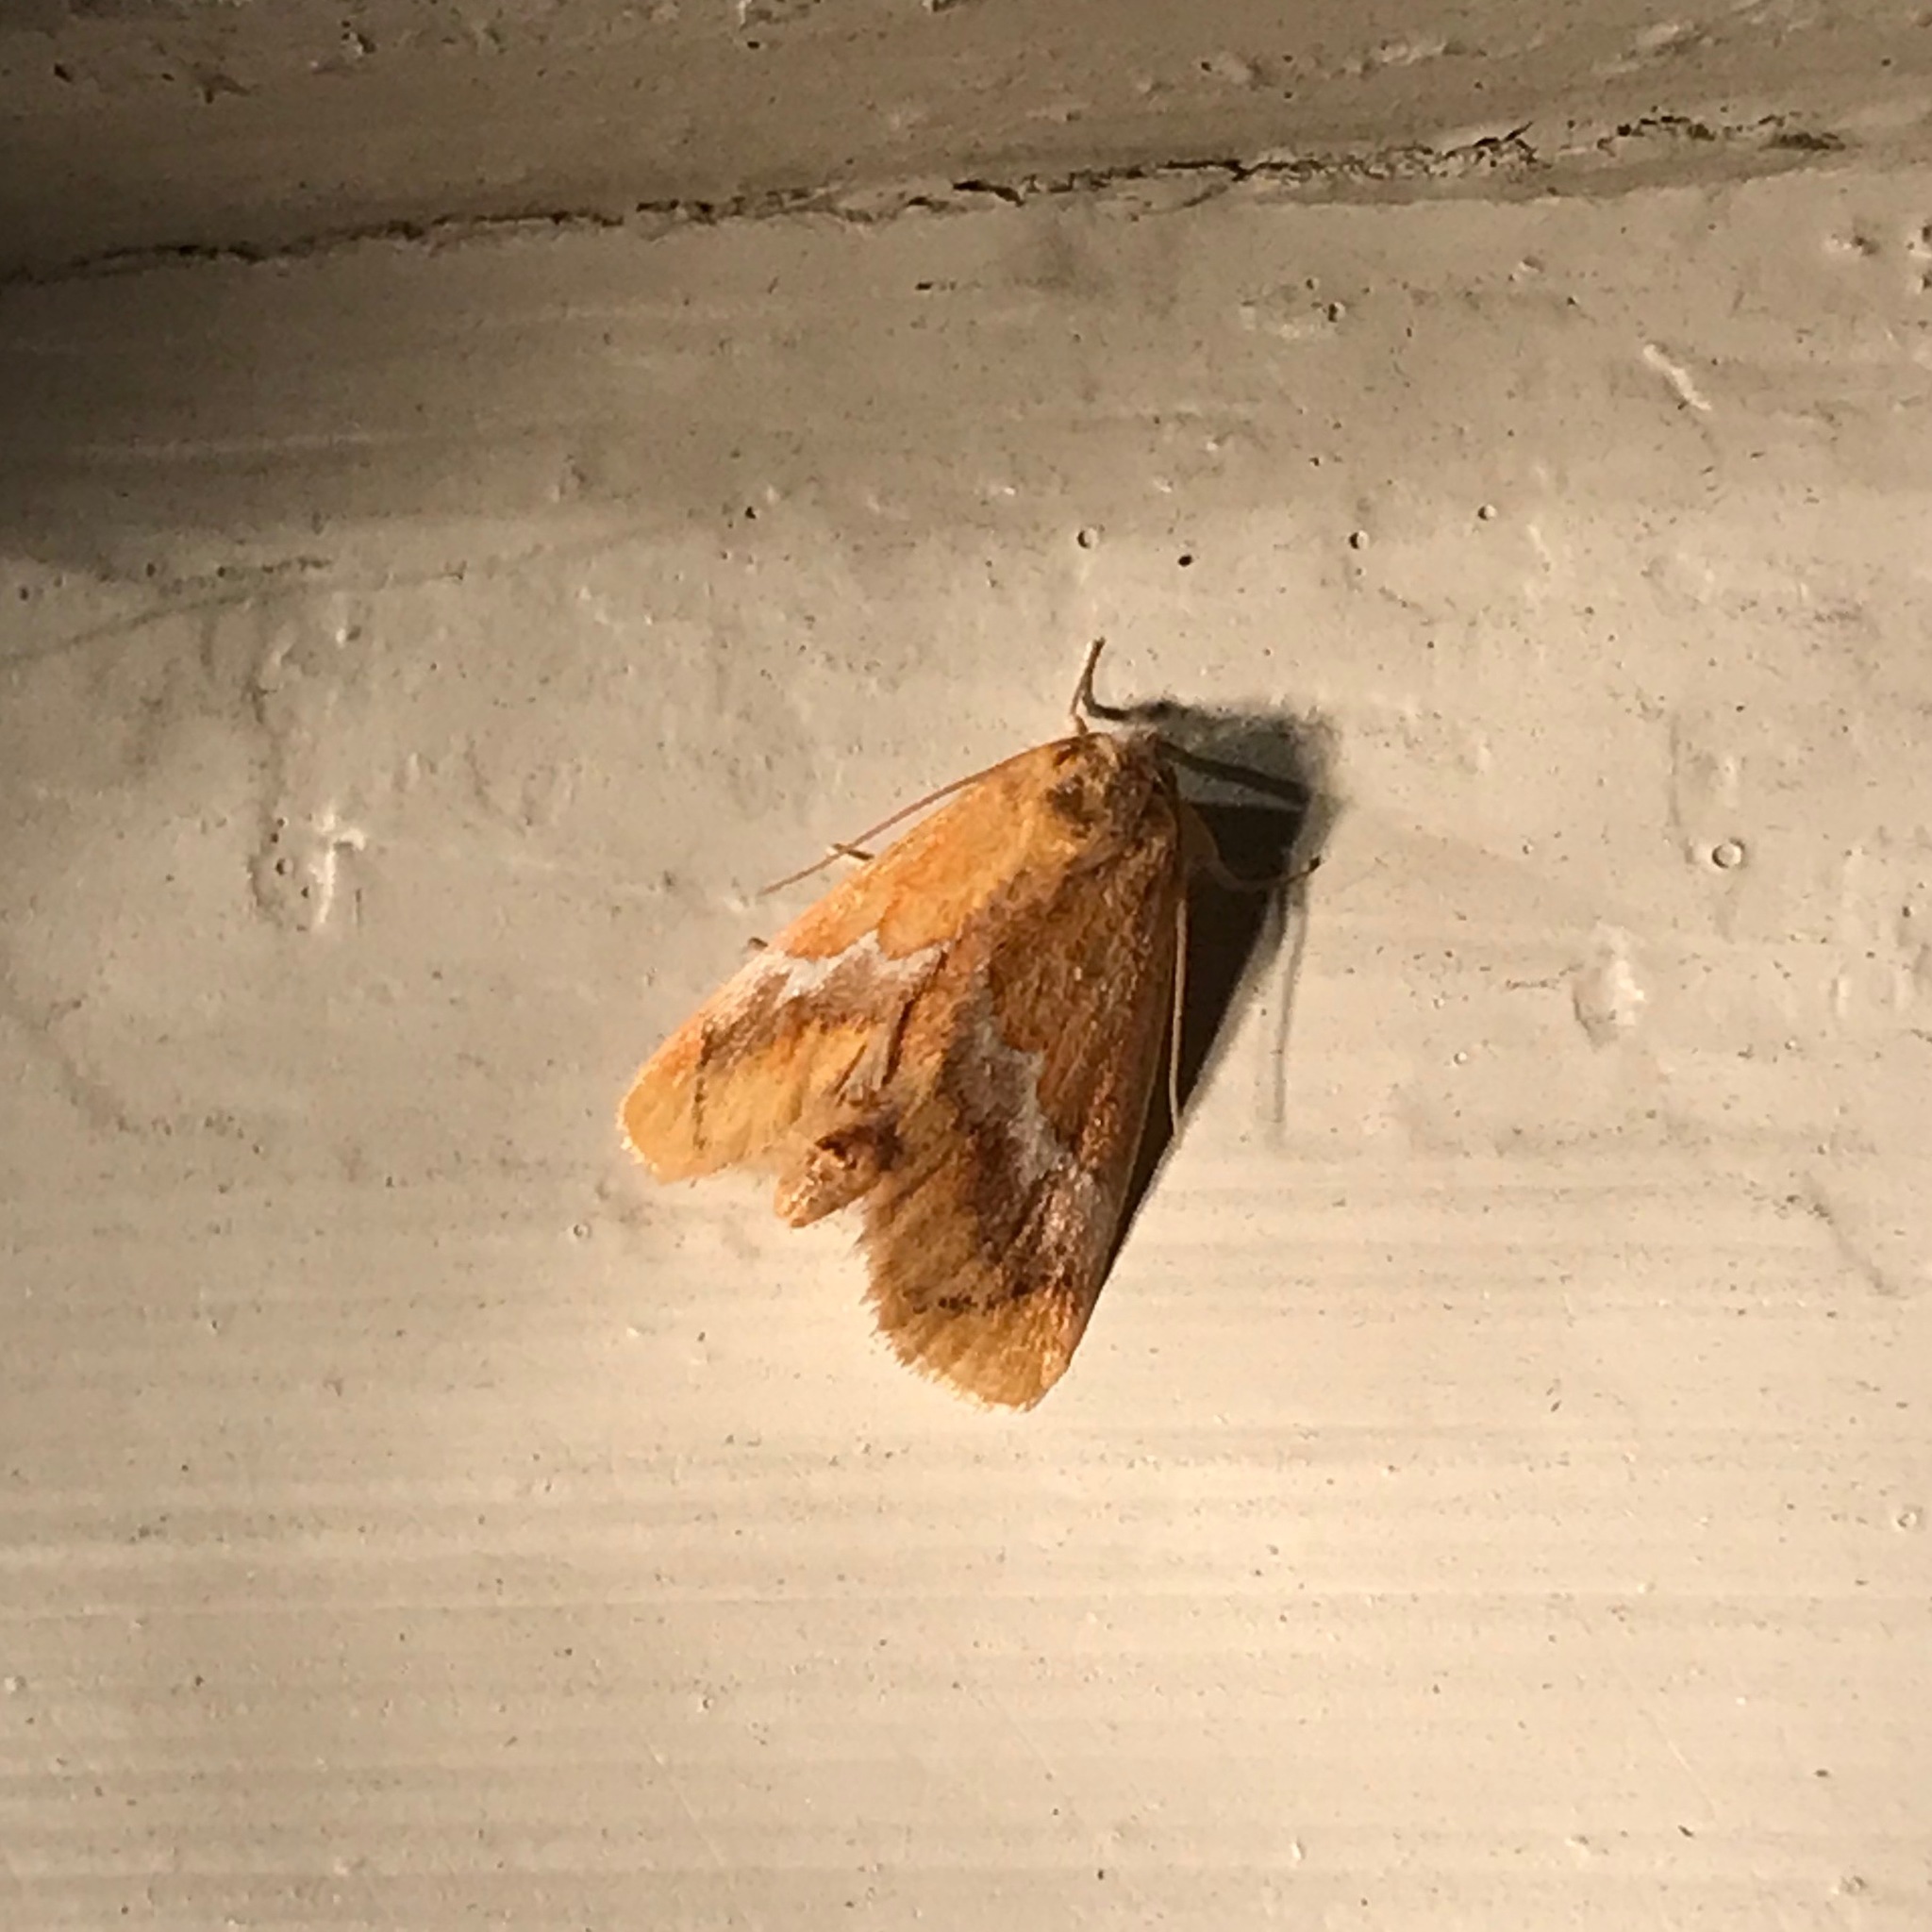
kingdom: Animalia
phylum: Arthropoda
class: Insecta
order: Lepidoptera
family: Limacodidae
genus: Lithacodes
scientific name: Lithacodes fasciola
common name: Yellow-shouldered slug moth
